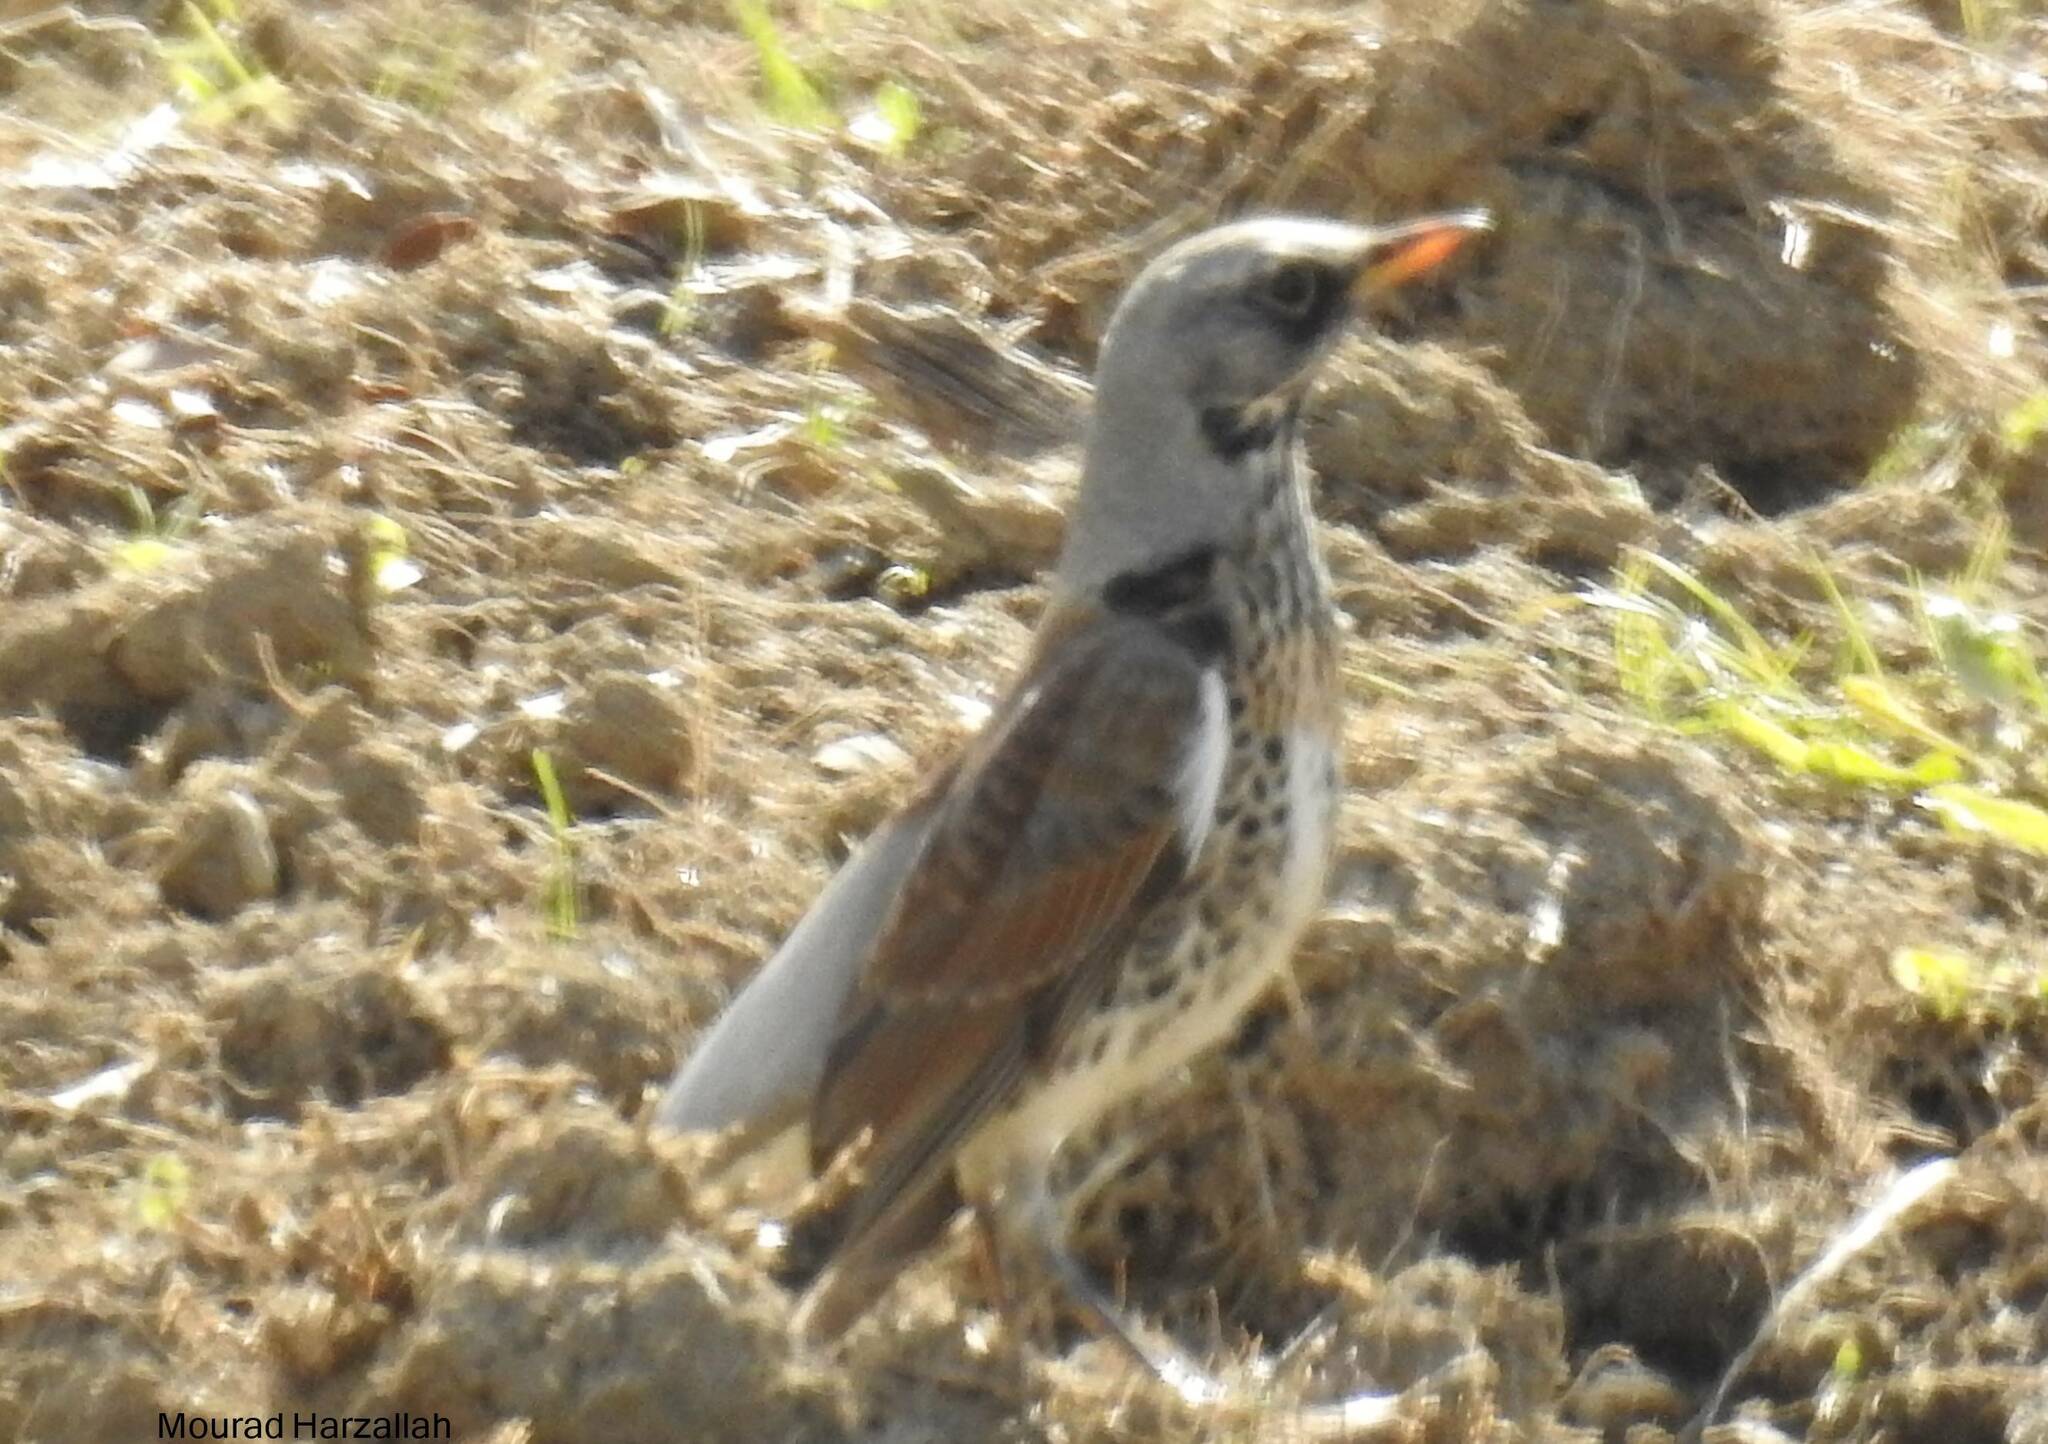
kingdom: Animalia
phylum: Chordata
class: Aves
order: Passeriformes
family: Turdidae
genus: Turdus
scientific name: Turdus pilaris
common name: Fieldfare
